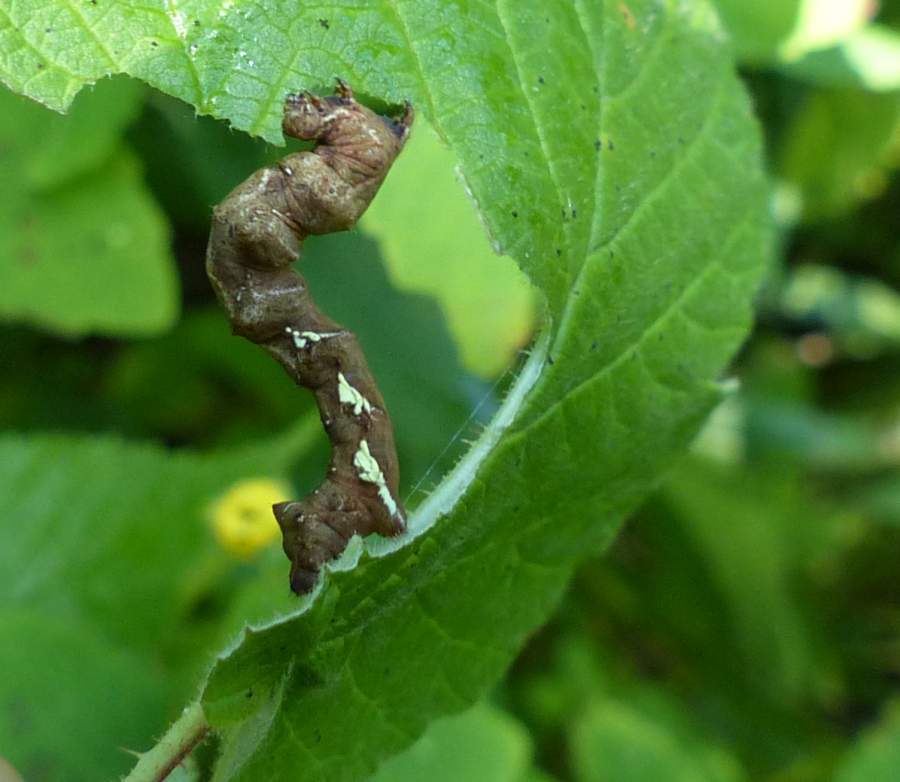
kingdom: Animalia
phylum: Arthropoda
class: Insecta
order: Lepidoptera
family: Geometridae
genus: Cepphis
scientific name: Cepphis armataria
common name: Scallop moth
